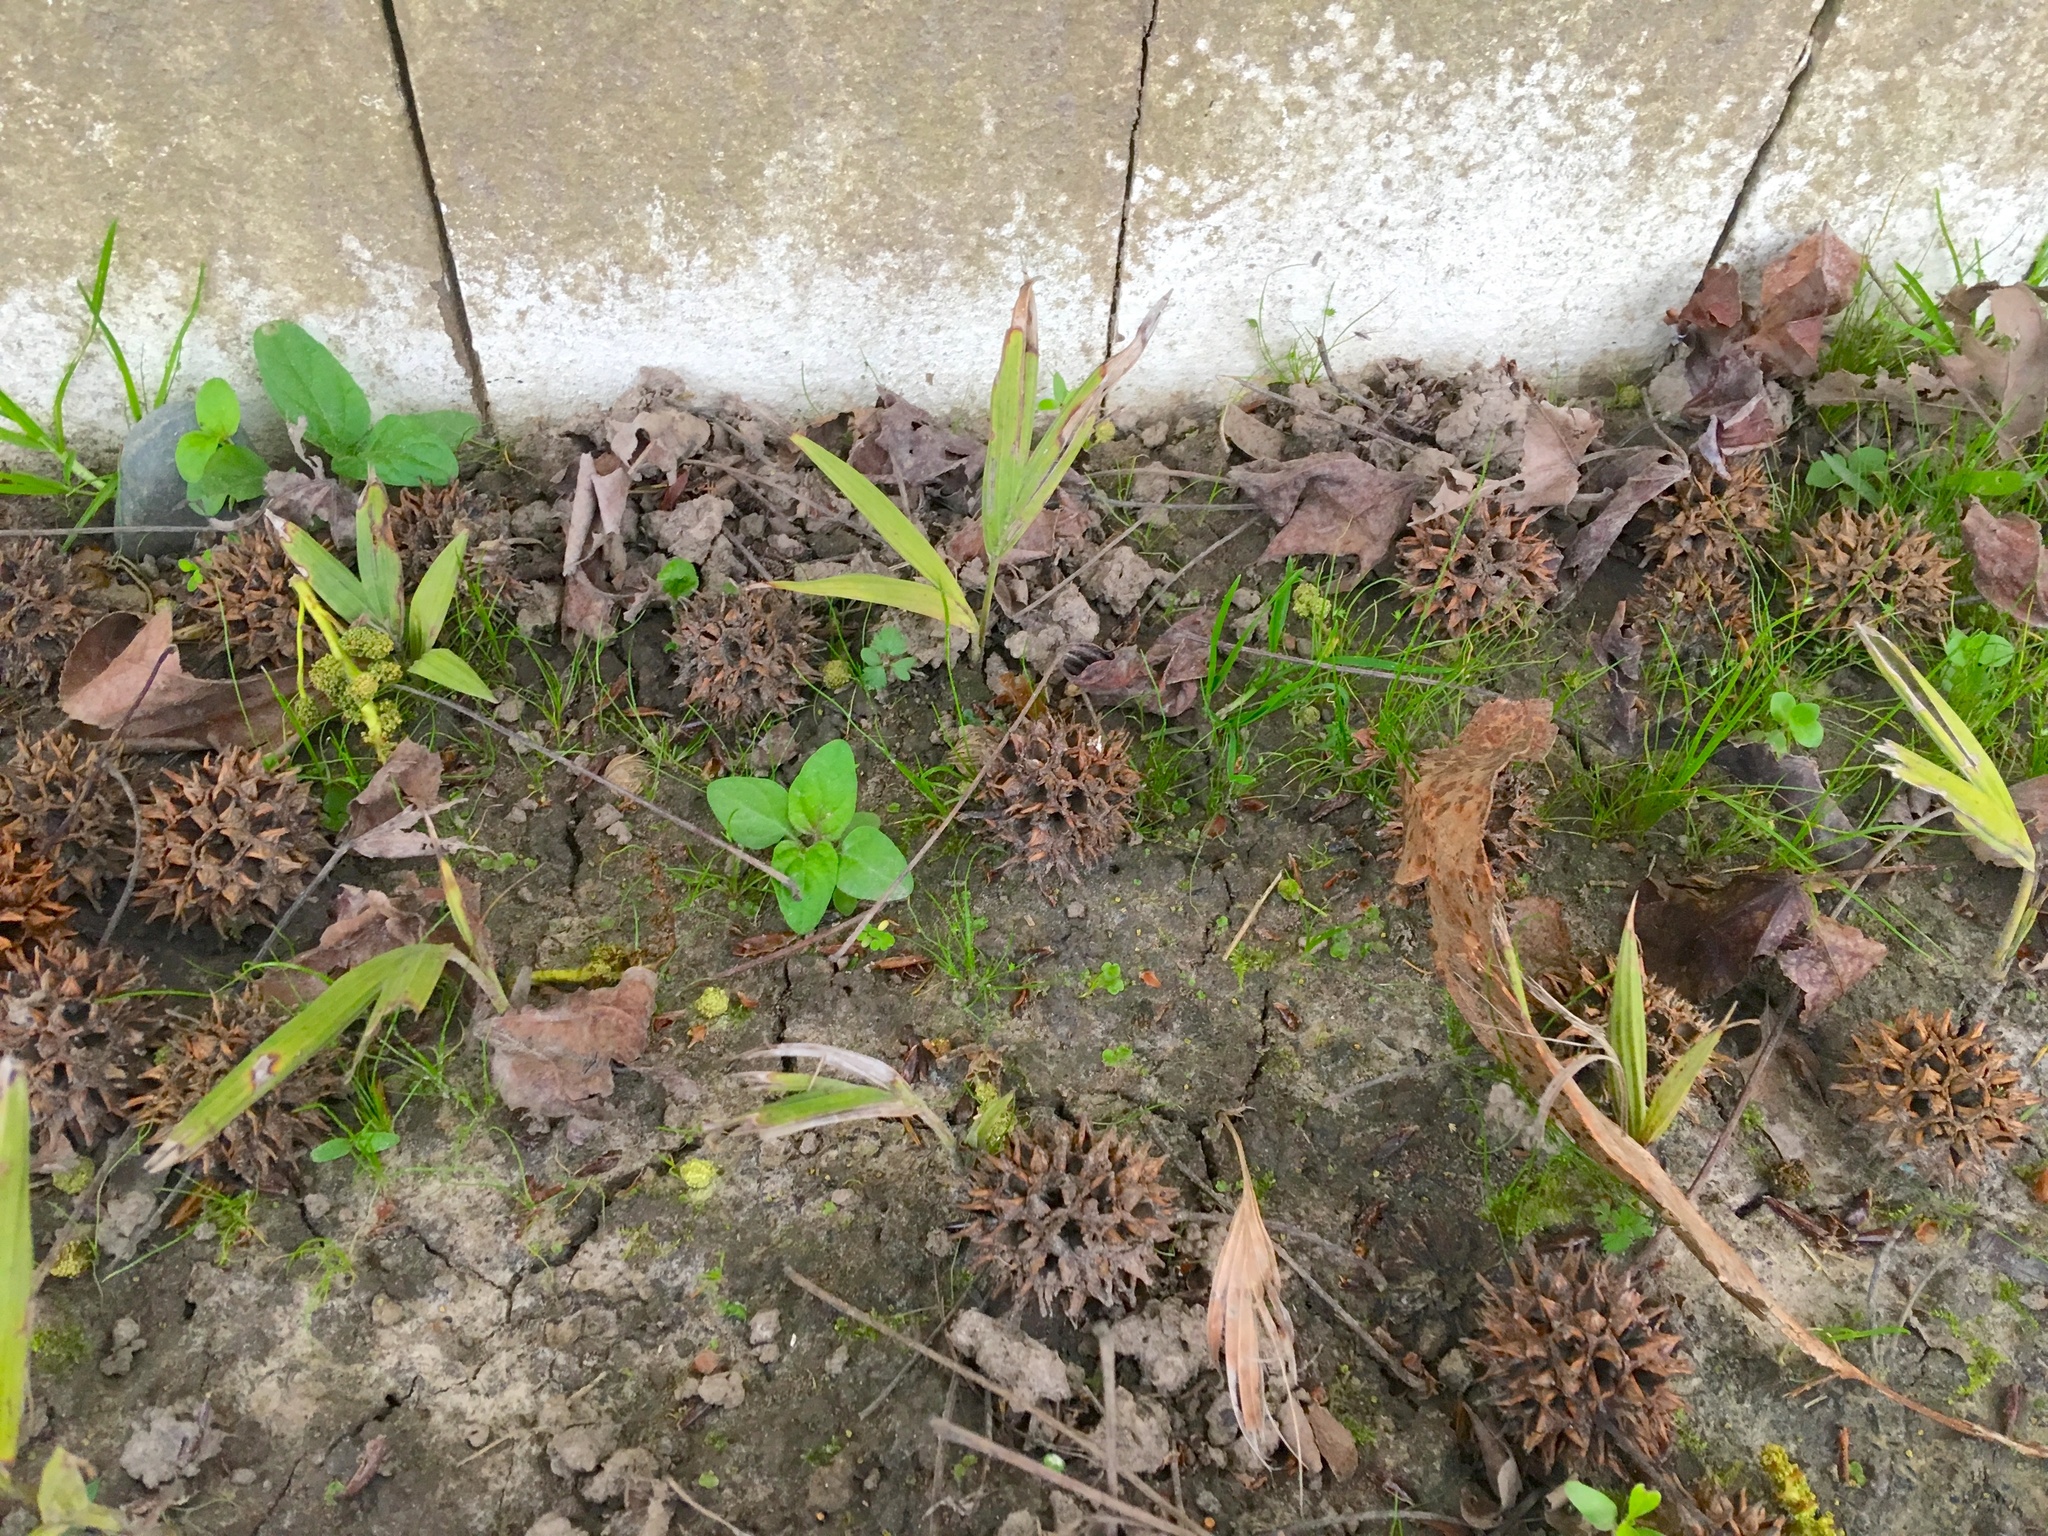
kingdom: Plantae
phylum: Tracheophyta
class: Liliopsida
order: Arecales
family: Arecaceae
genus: Archontophoenix
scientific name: Archontophoenix cunninghamiana
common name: Piccabeen bangalow palm
